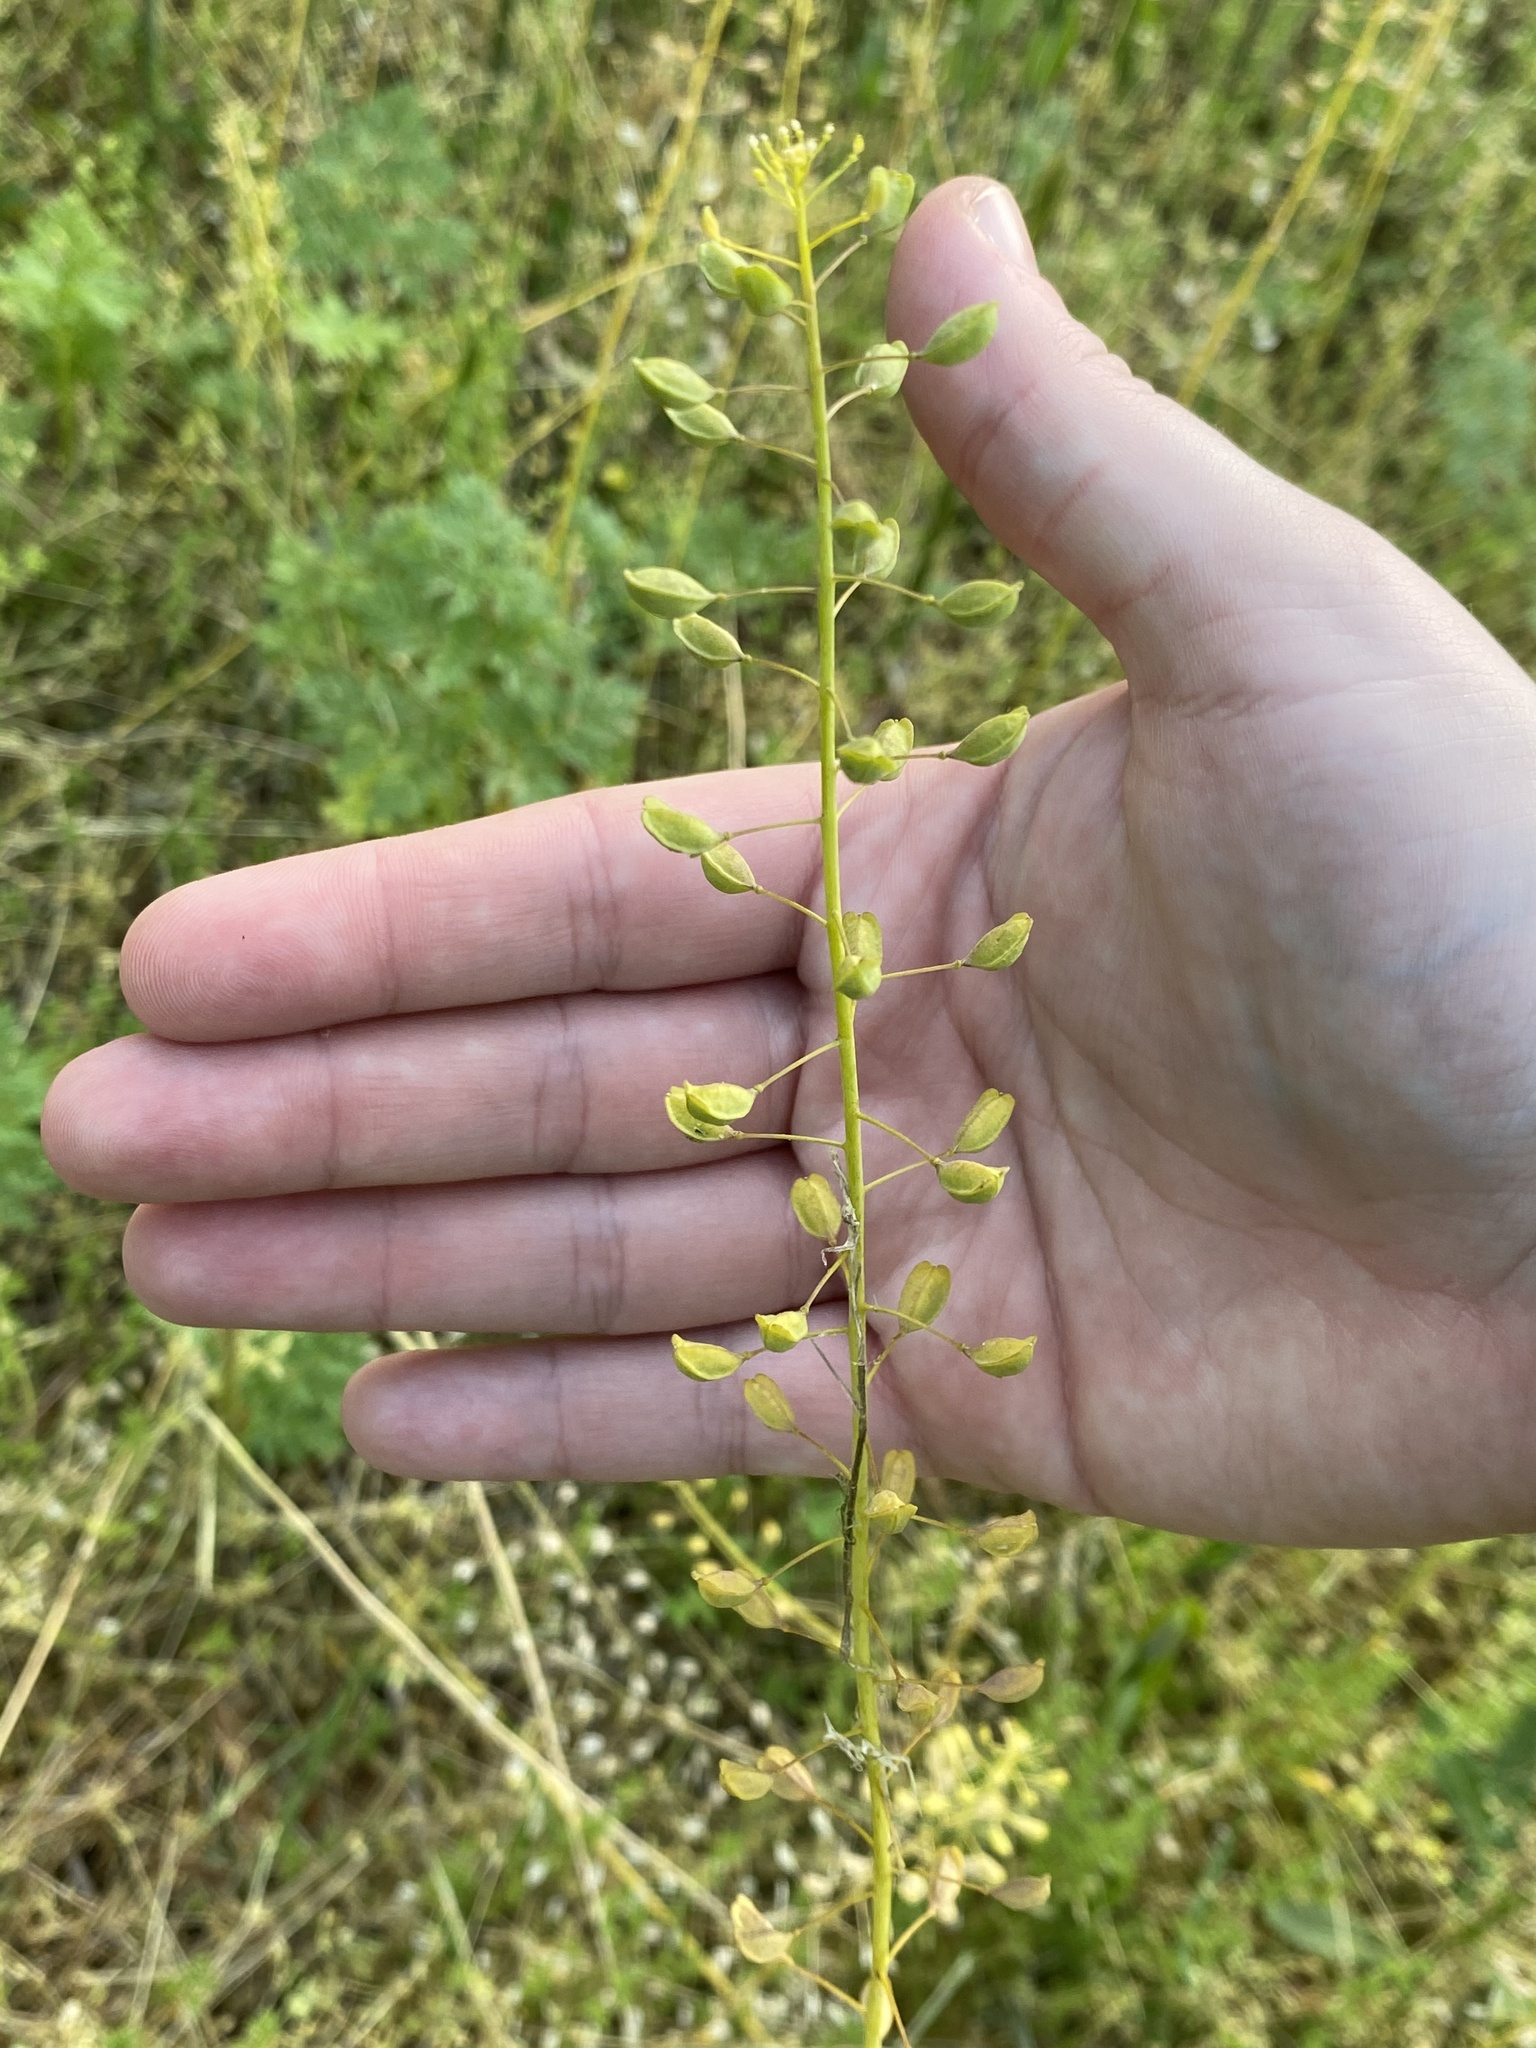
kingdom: Plantae
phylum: Tracheophyta
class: Magnoliopsida
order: Brassicales
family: Brassicaceae
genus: Mummenhoffia
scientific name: Mummenhoffia alliacea
